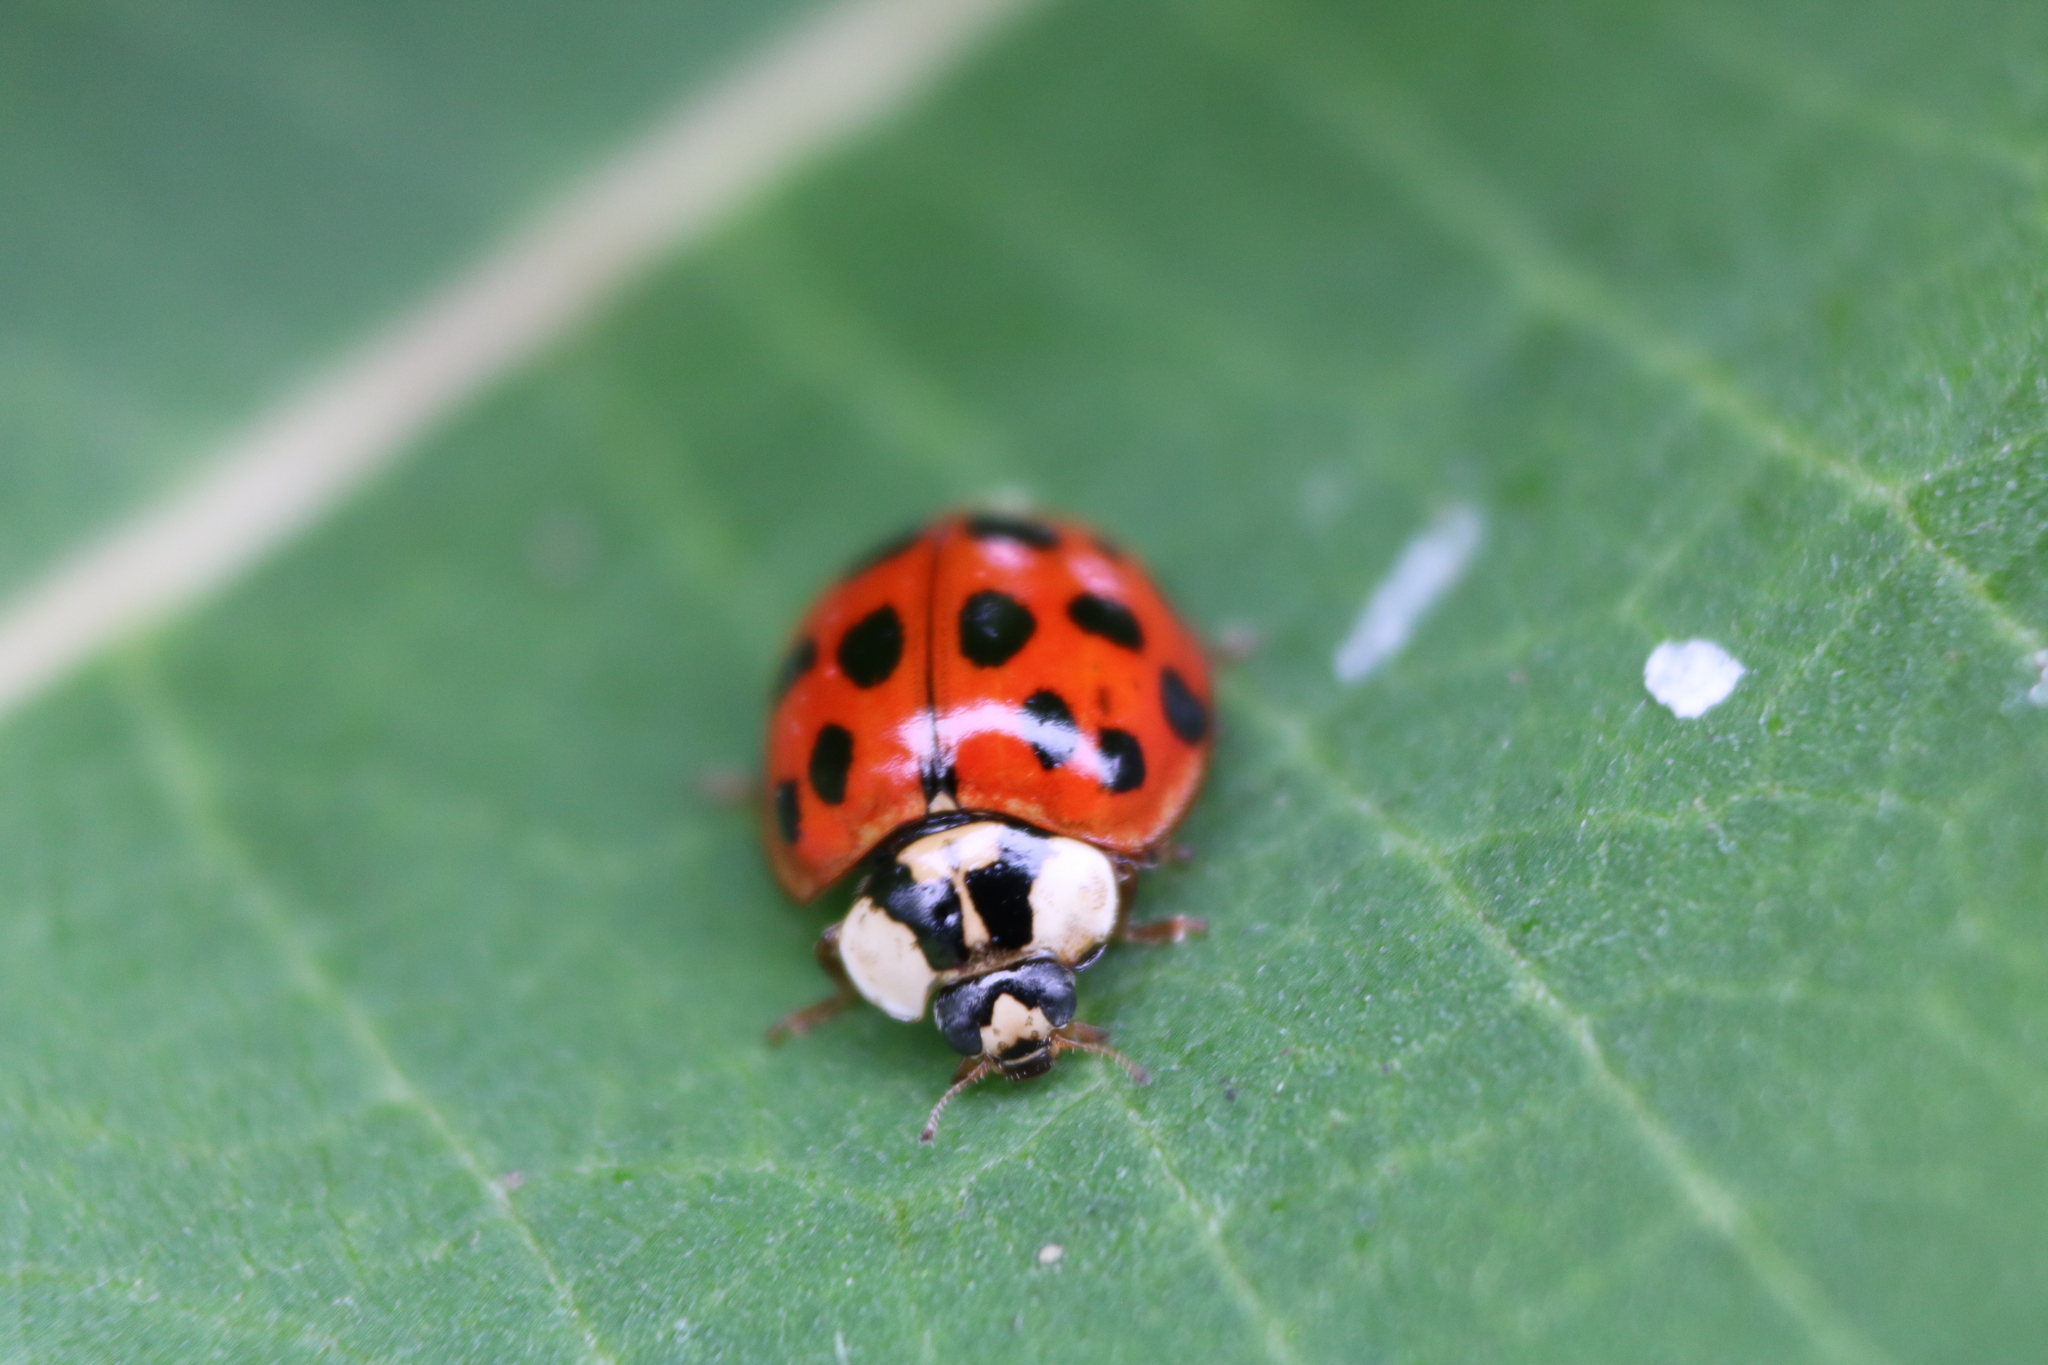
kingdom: Animalia
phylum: Arthropoda
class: Insecta
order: Coleoptera
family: Coccinellidae
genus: Harmonia
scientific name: Harmonia axyridis
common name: Harlequin ladybird
